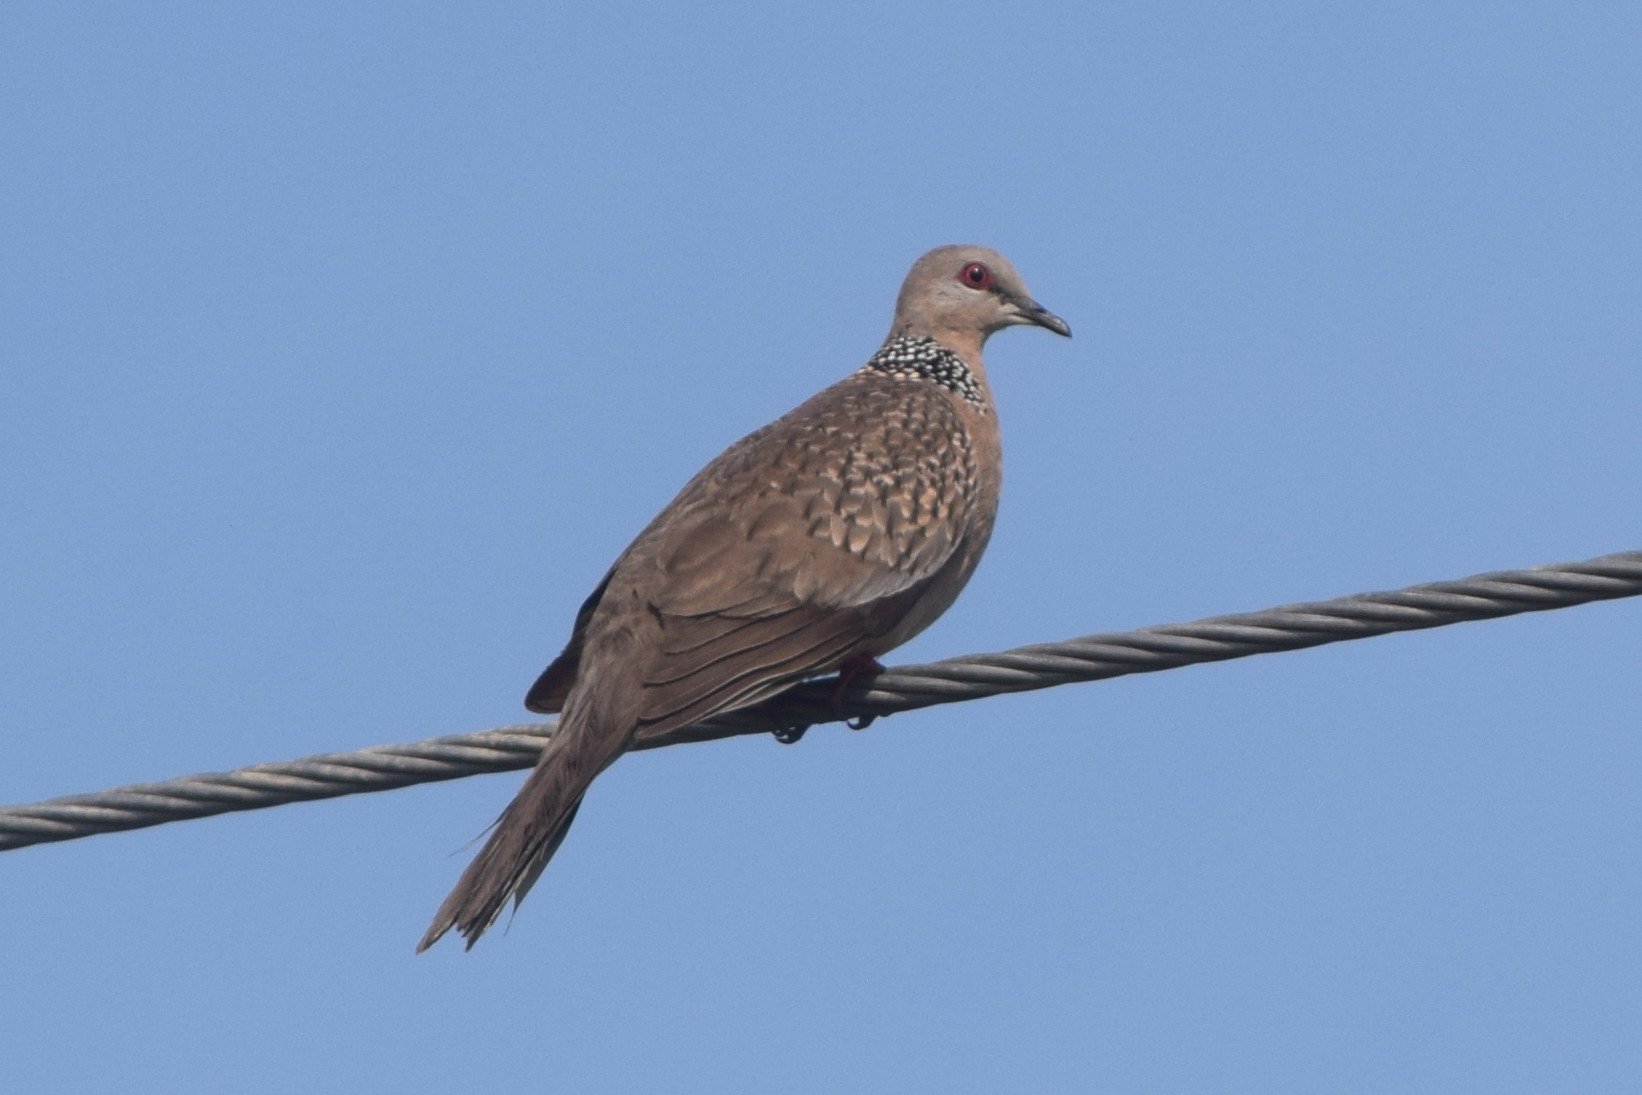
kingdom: Animalia
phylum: Chordata
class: Aves
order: Columbiformes
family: Columbidae
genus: Spilopelia
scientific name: Spilopelia chinensis
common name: Spotted dove
